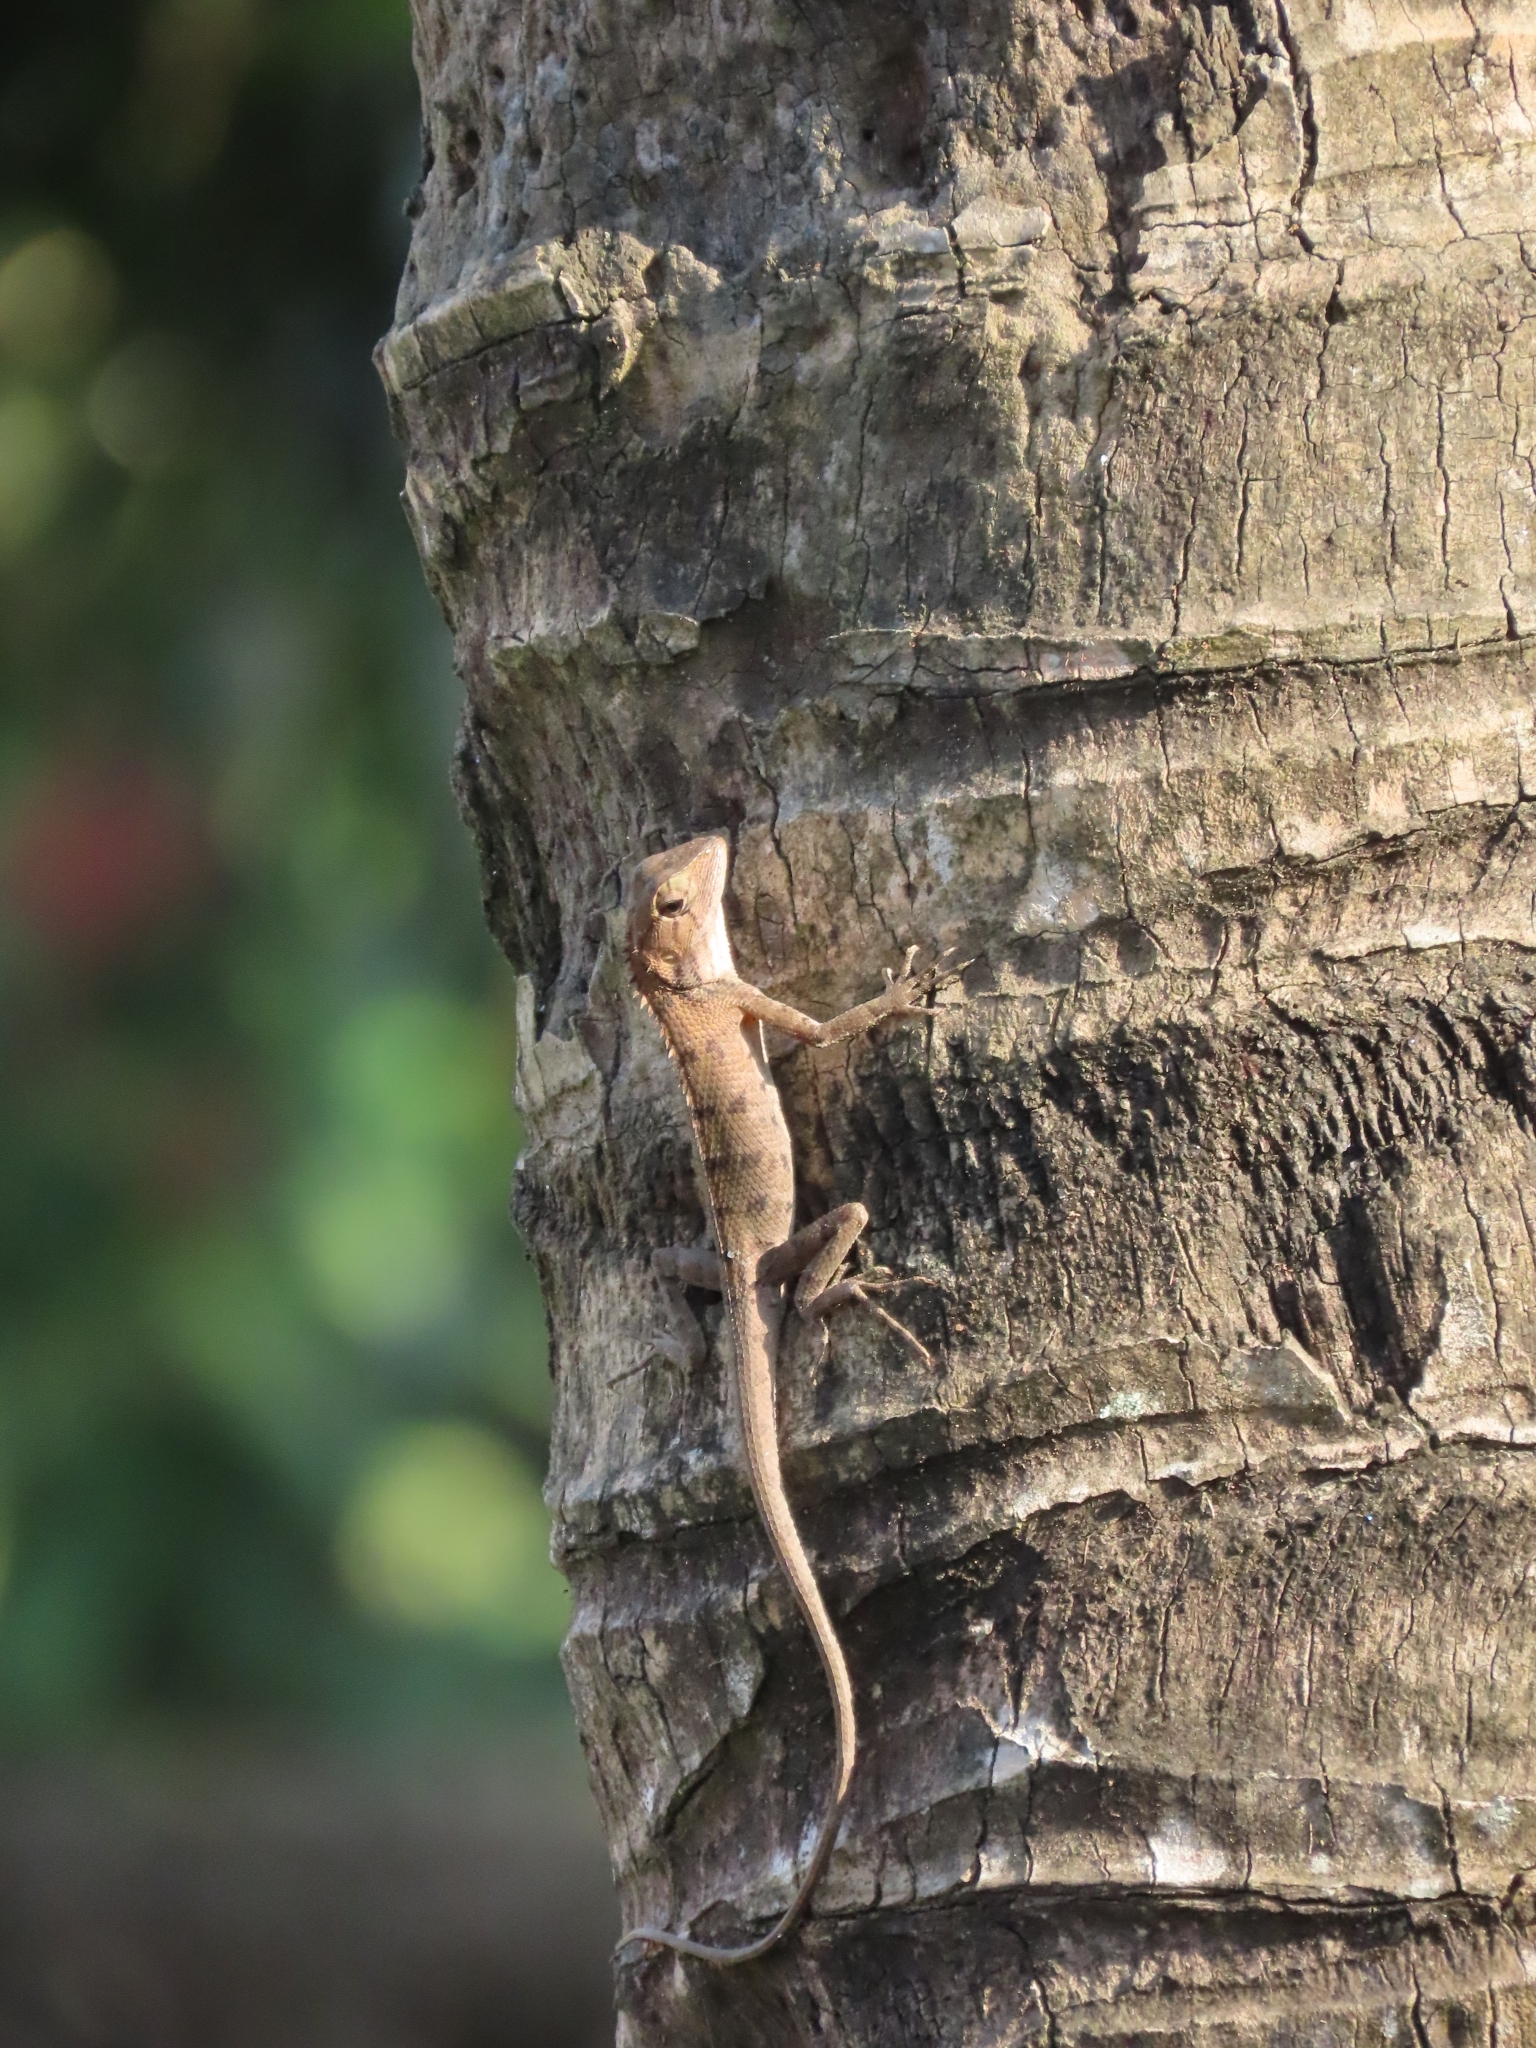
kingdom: Animalia
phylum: Chordata
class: Squamata
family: Agamidae
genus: Calotes
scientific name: Calotes versicolor
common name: Oriental garden lizard
